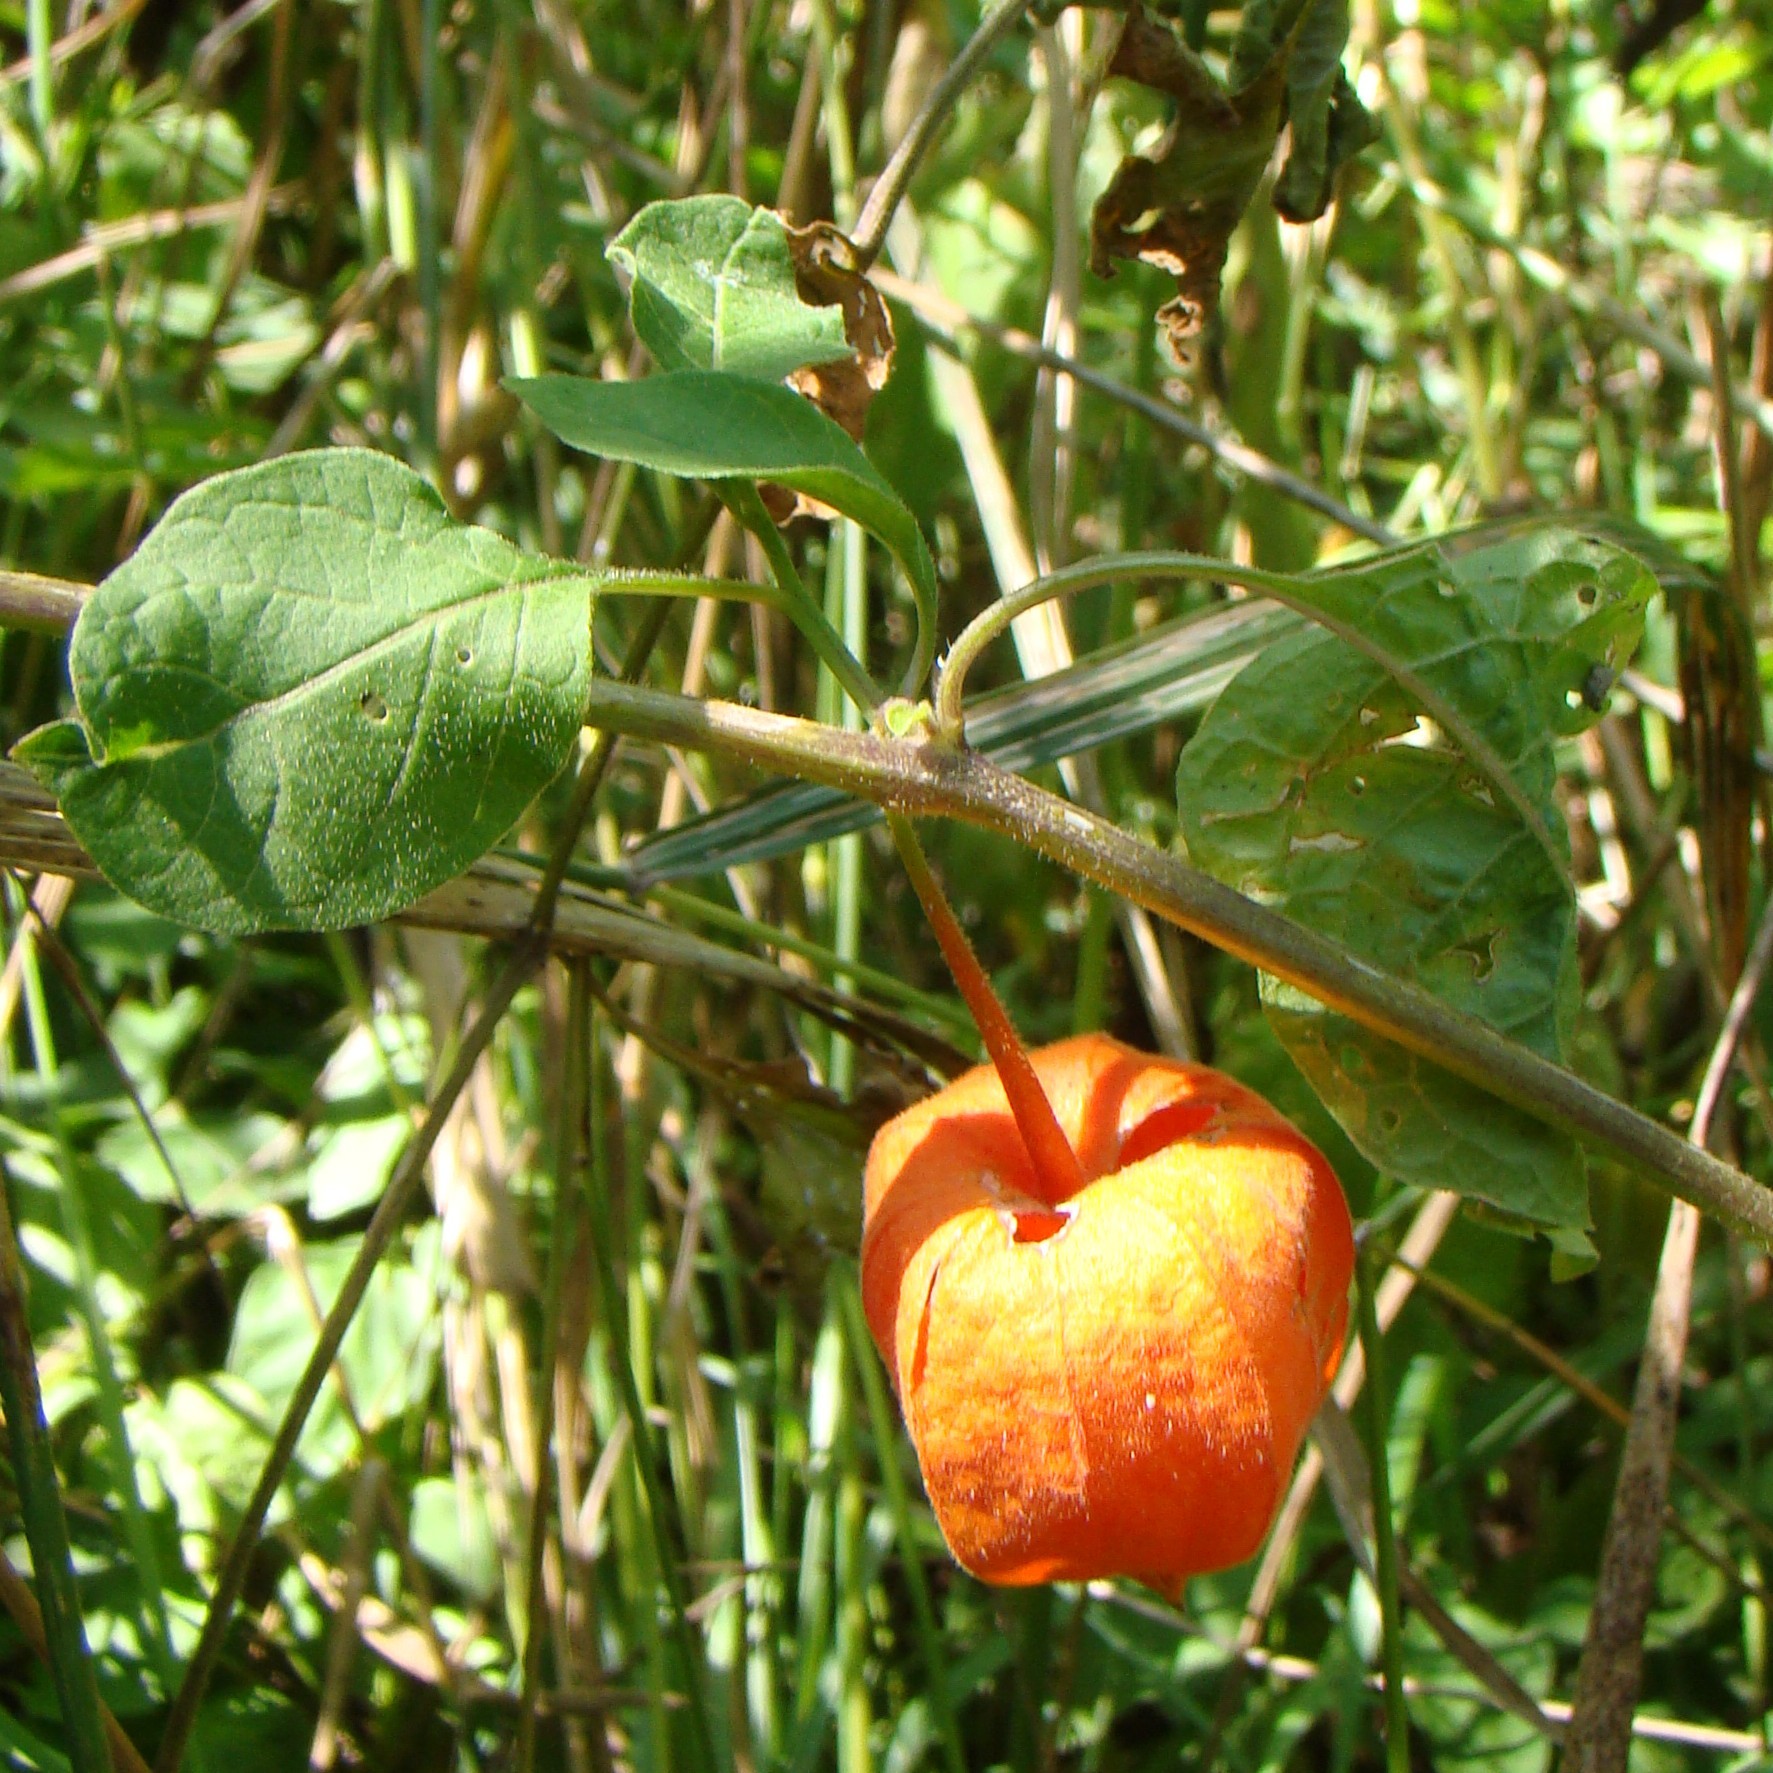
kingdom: Plantae
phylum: Tracheophyta
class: Magnoliopsida
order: Solanales
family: Solanaceae
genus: Alkekengi
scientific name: Alkekengi officinarum
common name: Japanese-lantern
